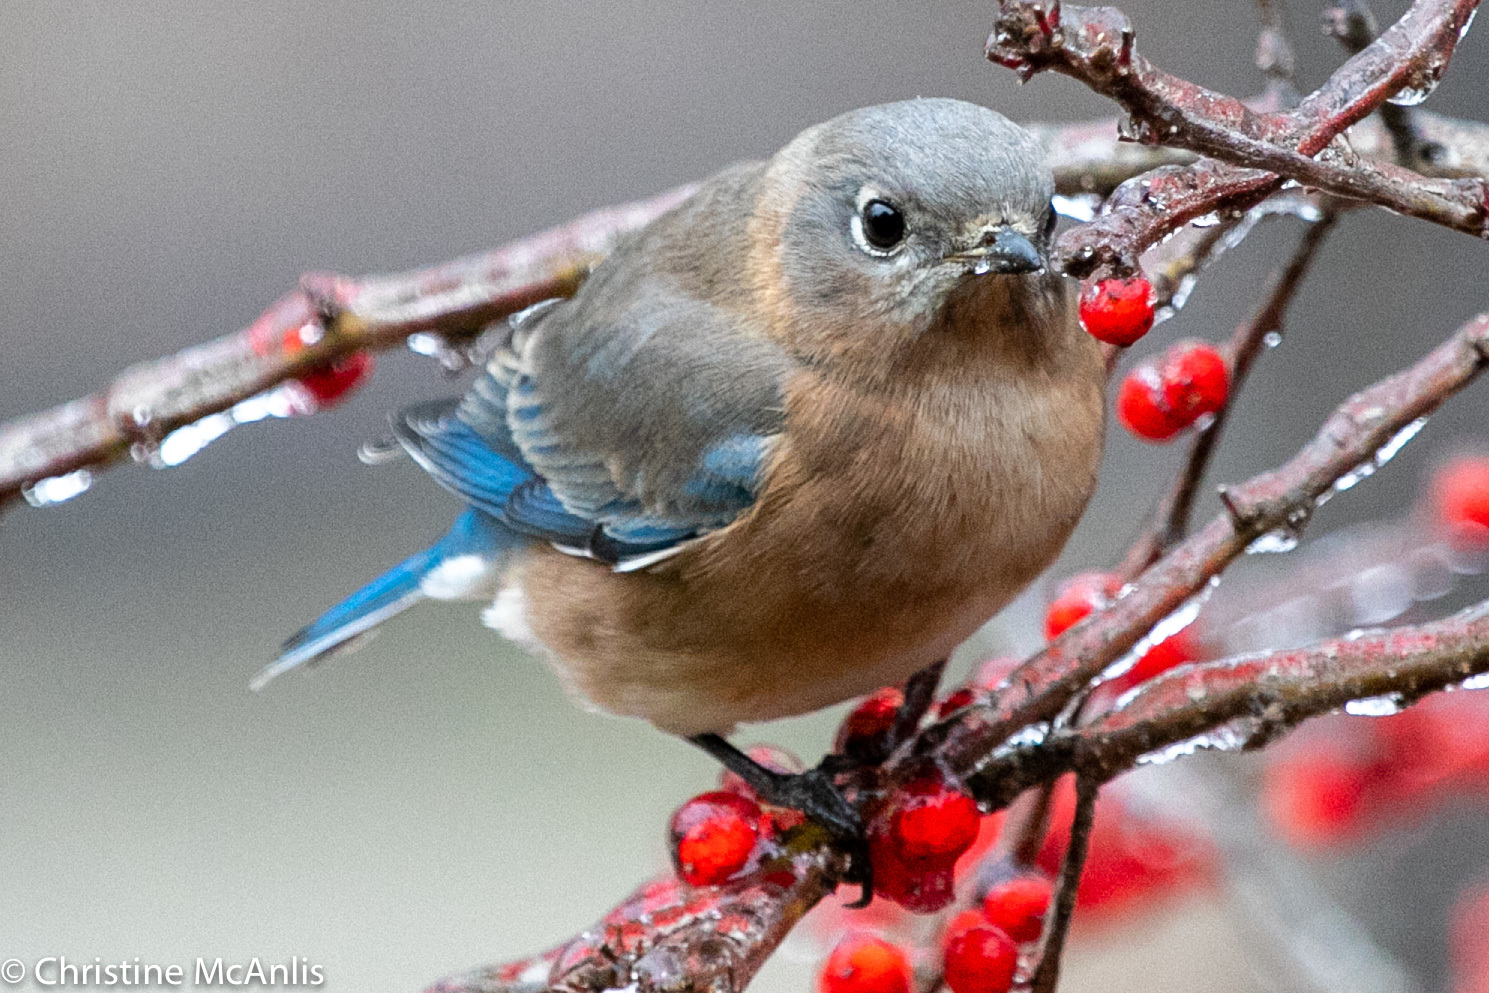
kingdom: Animalia
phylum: Chordata
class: Aves
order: Passeriformes
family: Turdidae
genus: Sialia
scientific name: Sialia sialis
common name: Eastern bluebird
